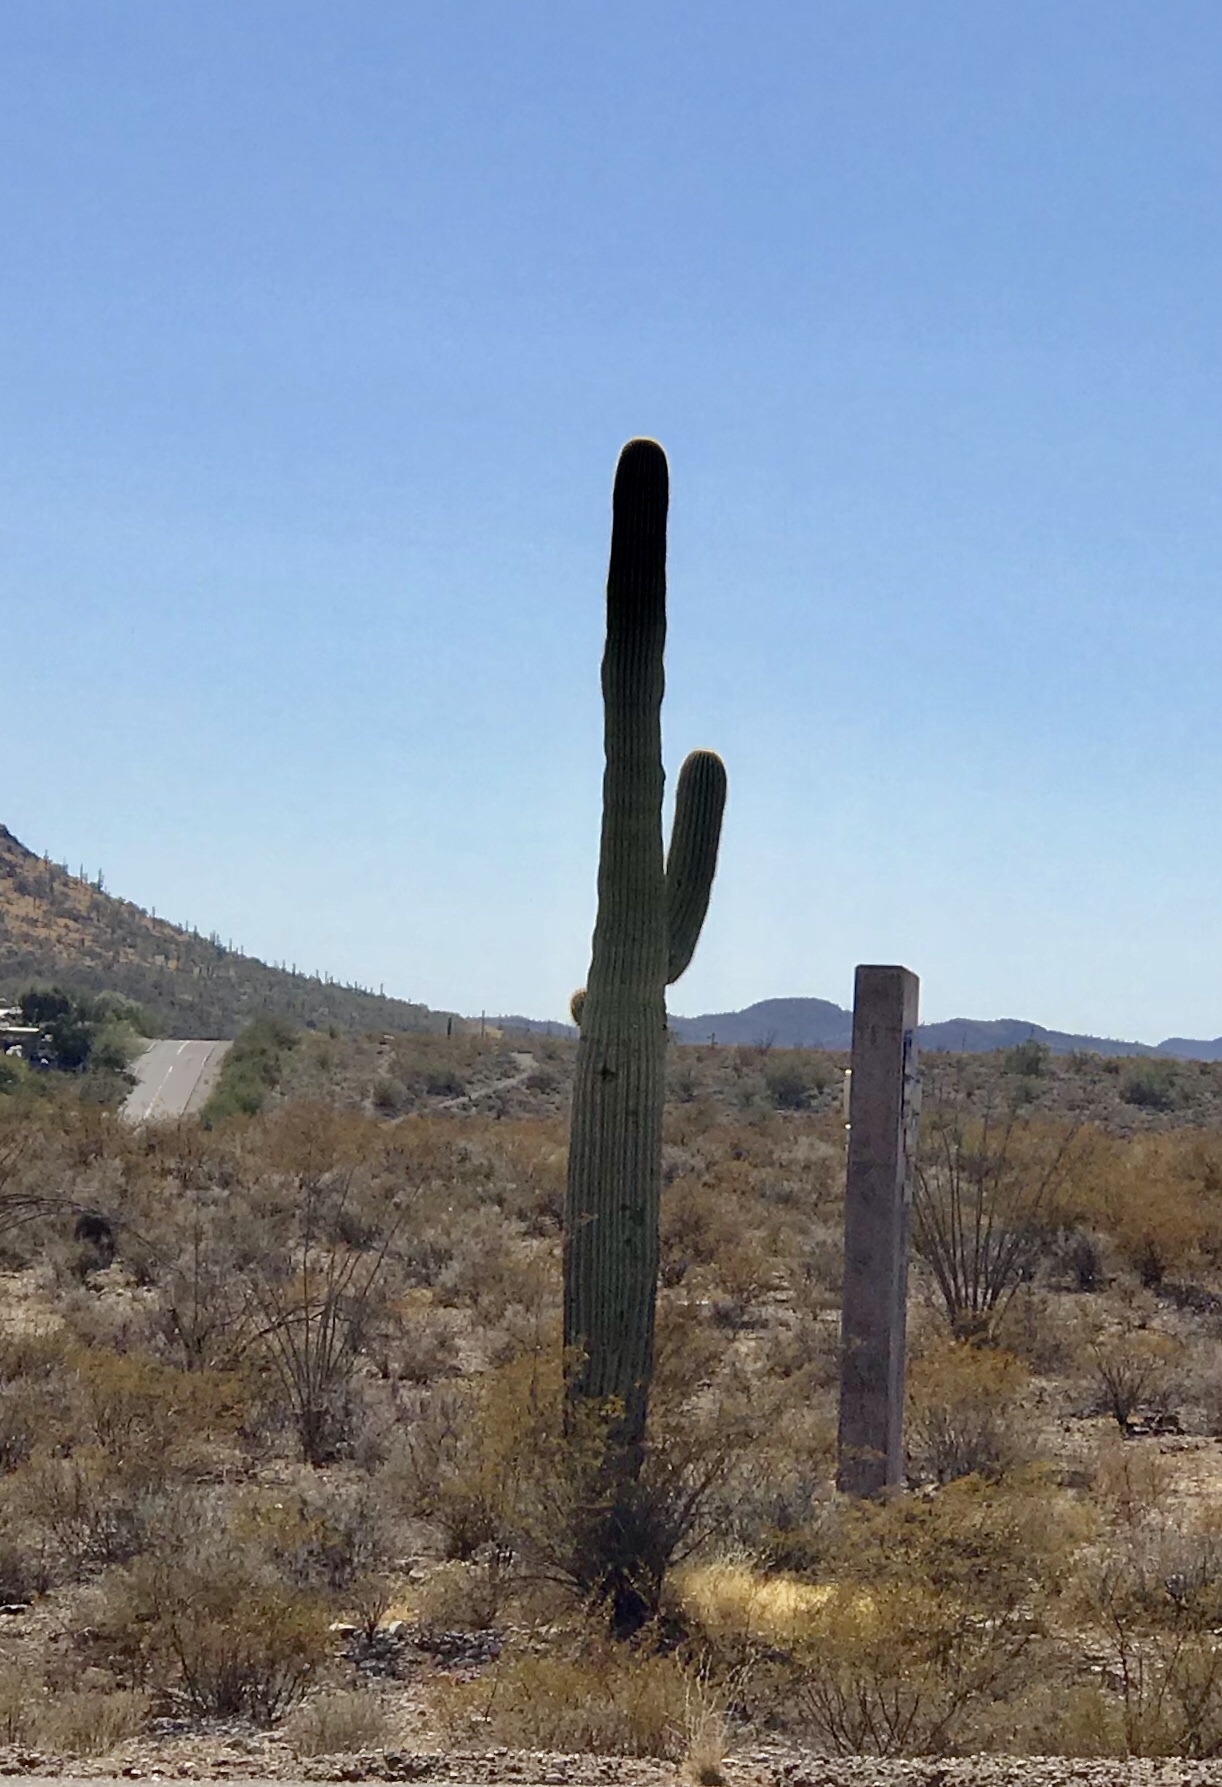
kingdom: Plantae
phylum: Tracheophyta
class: Magnoliopsida
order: Caryophyllales
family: Cactaceae
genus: Carnegiea
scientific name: Carnegiea gigantea
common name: Saguaro
